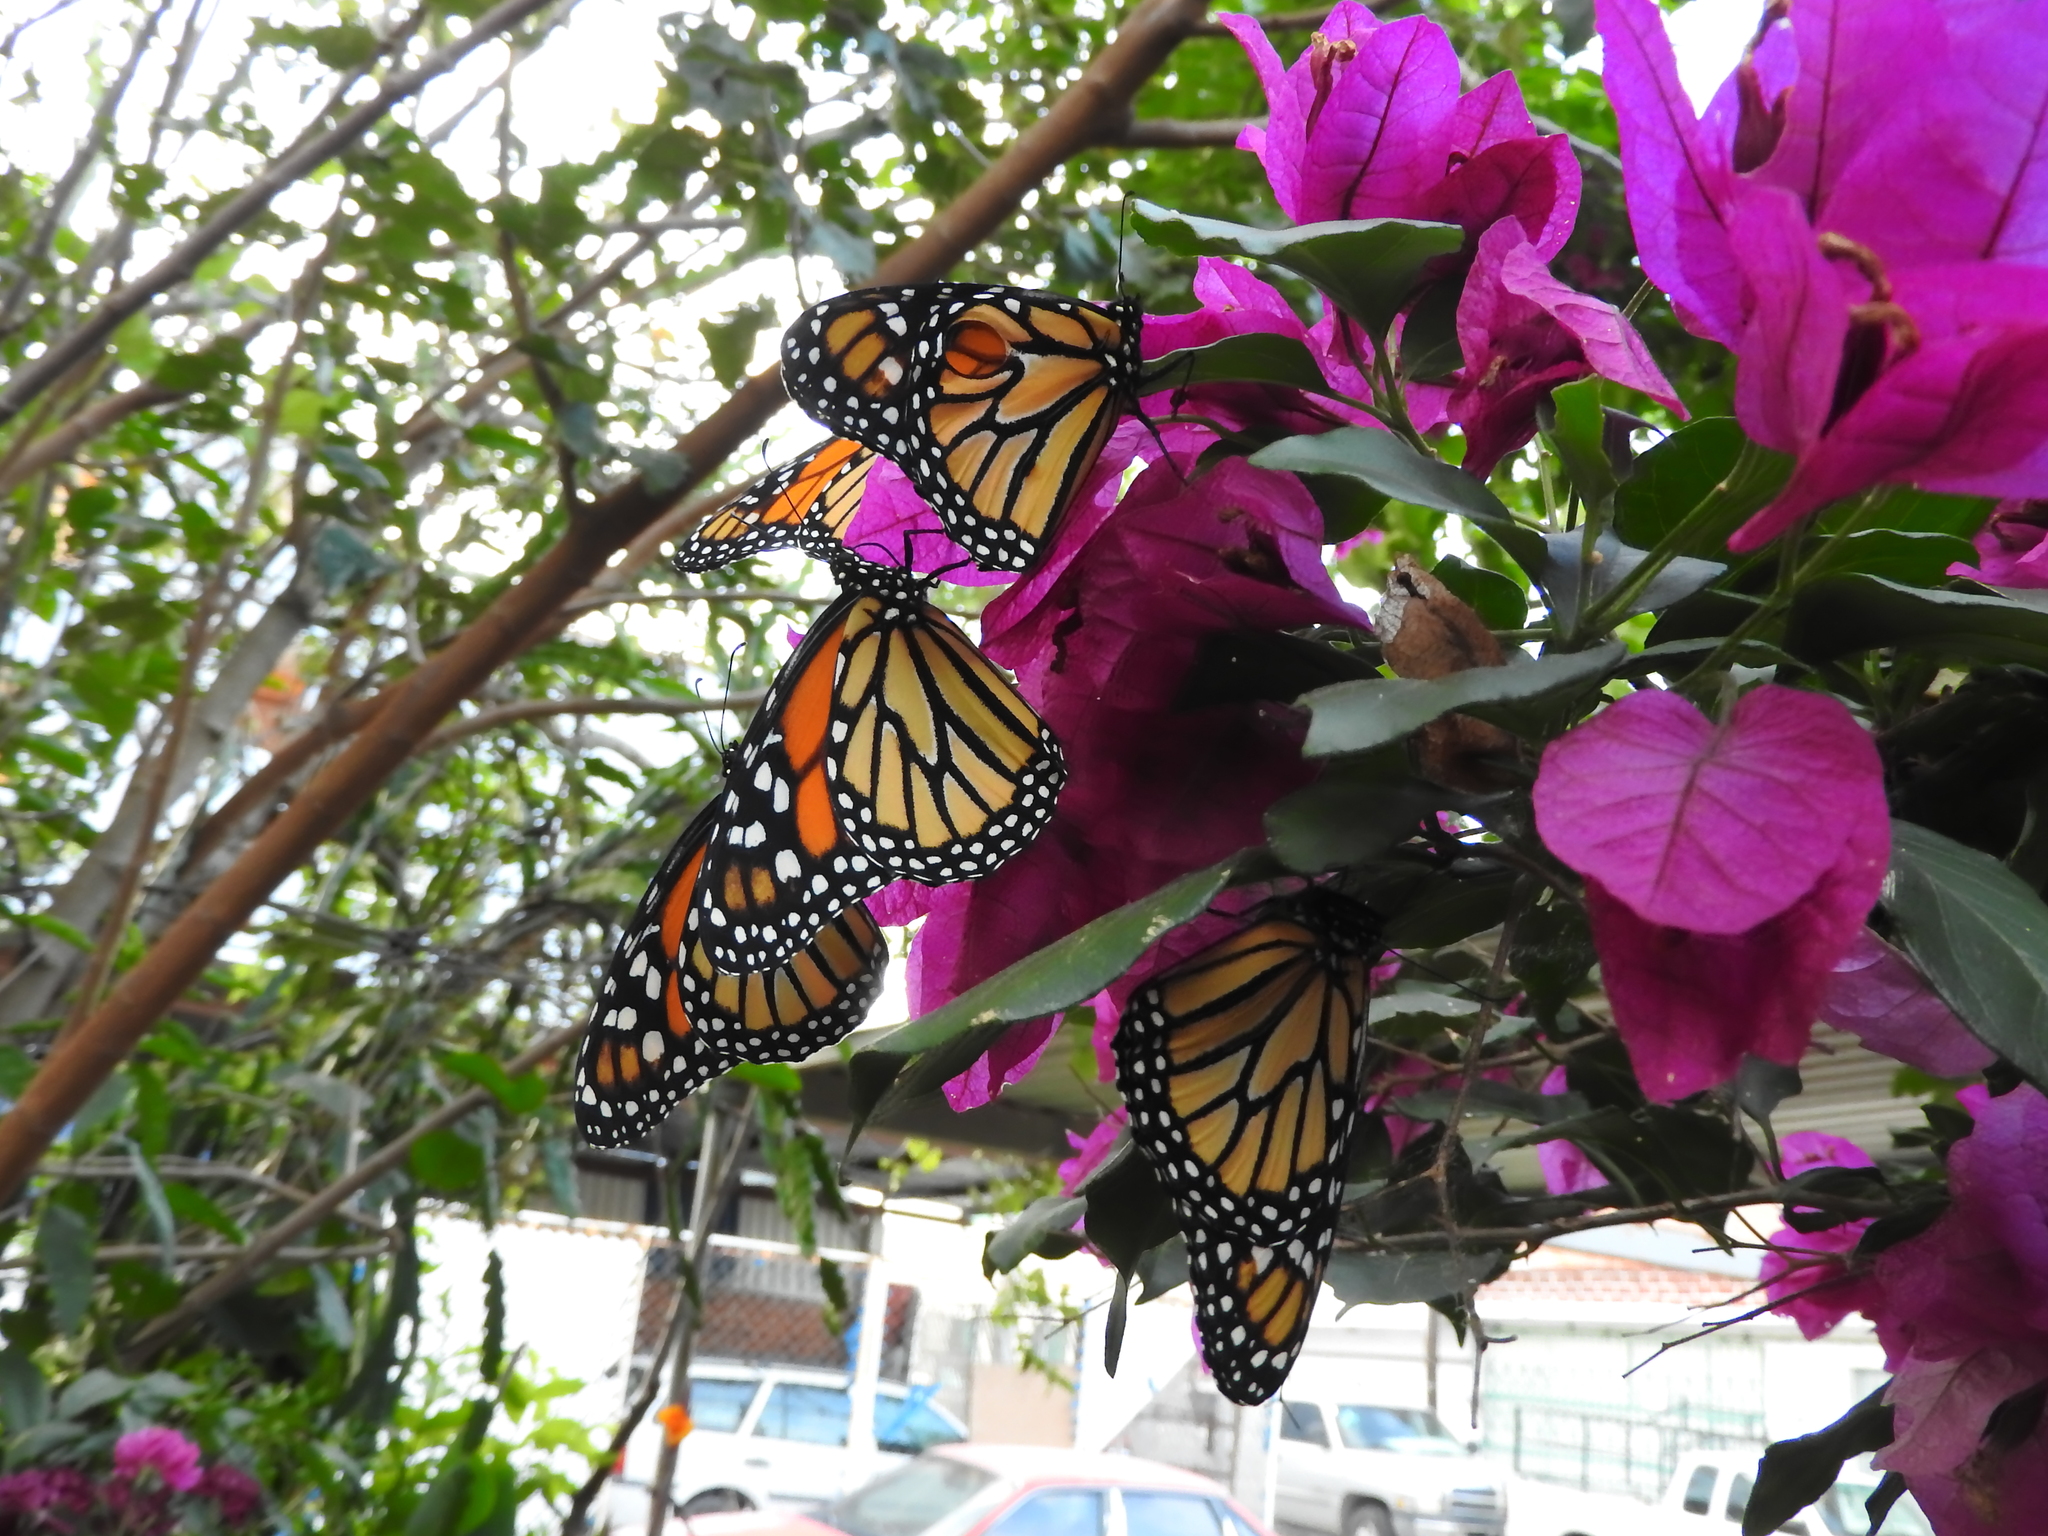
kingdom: Animalia
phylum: Arthropoda
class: Insecta
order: Lepidoptera
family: Nymphalidae
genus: Danaus
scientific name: Danaus plexippus
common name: Monarch
